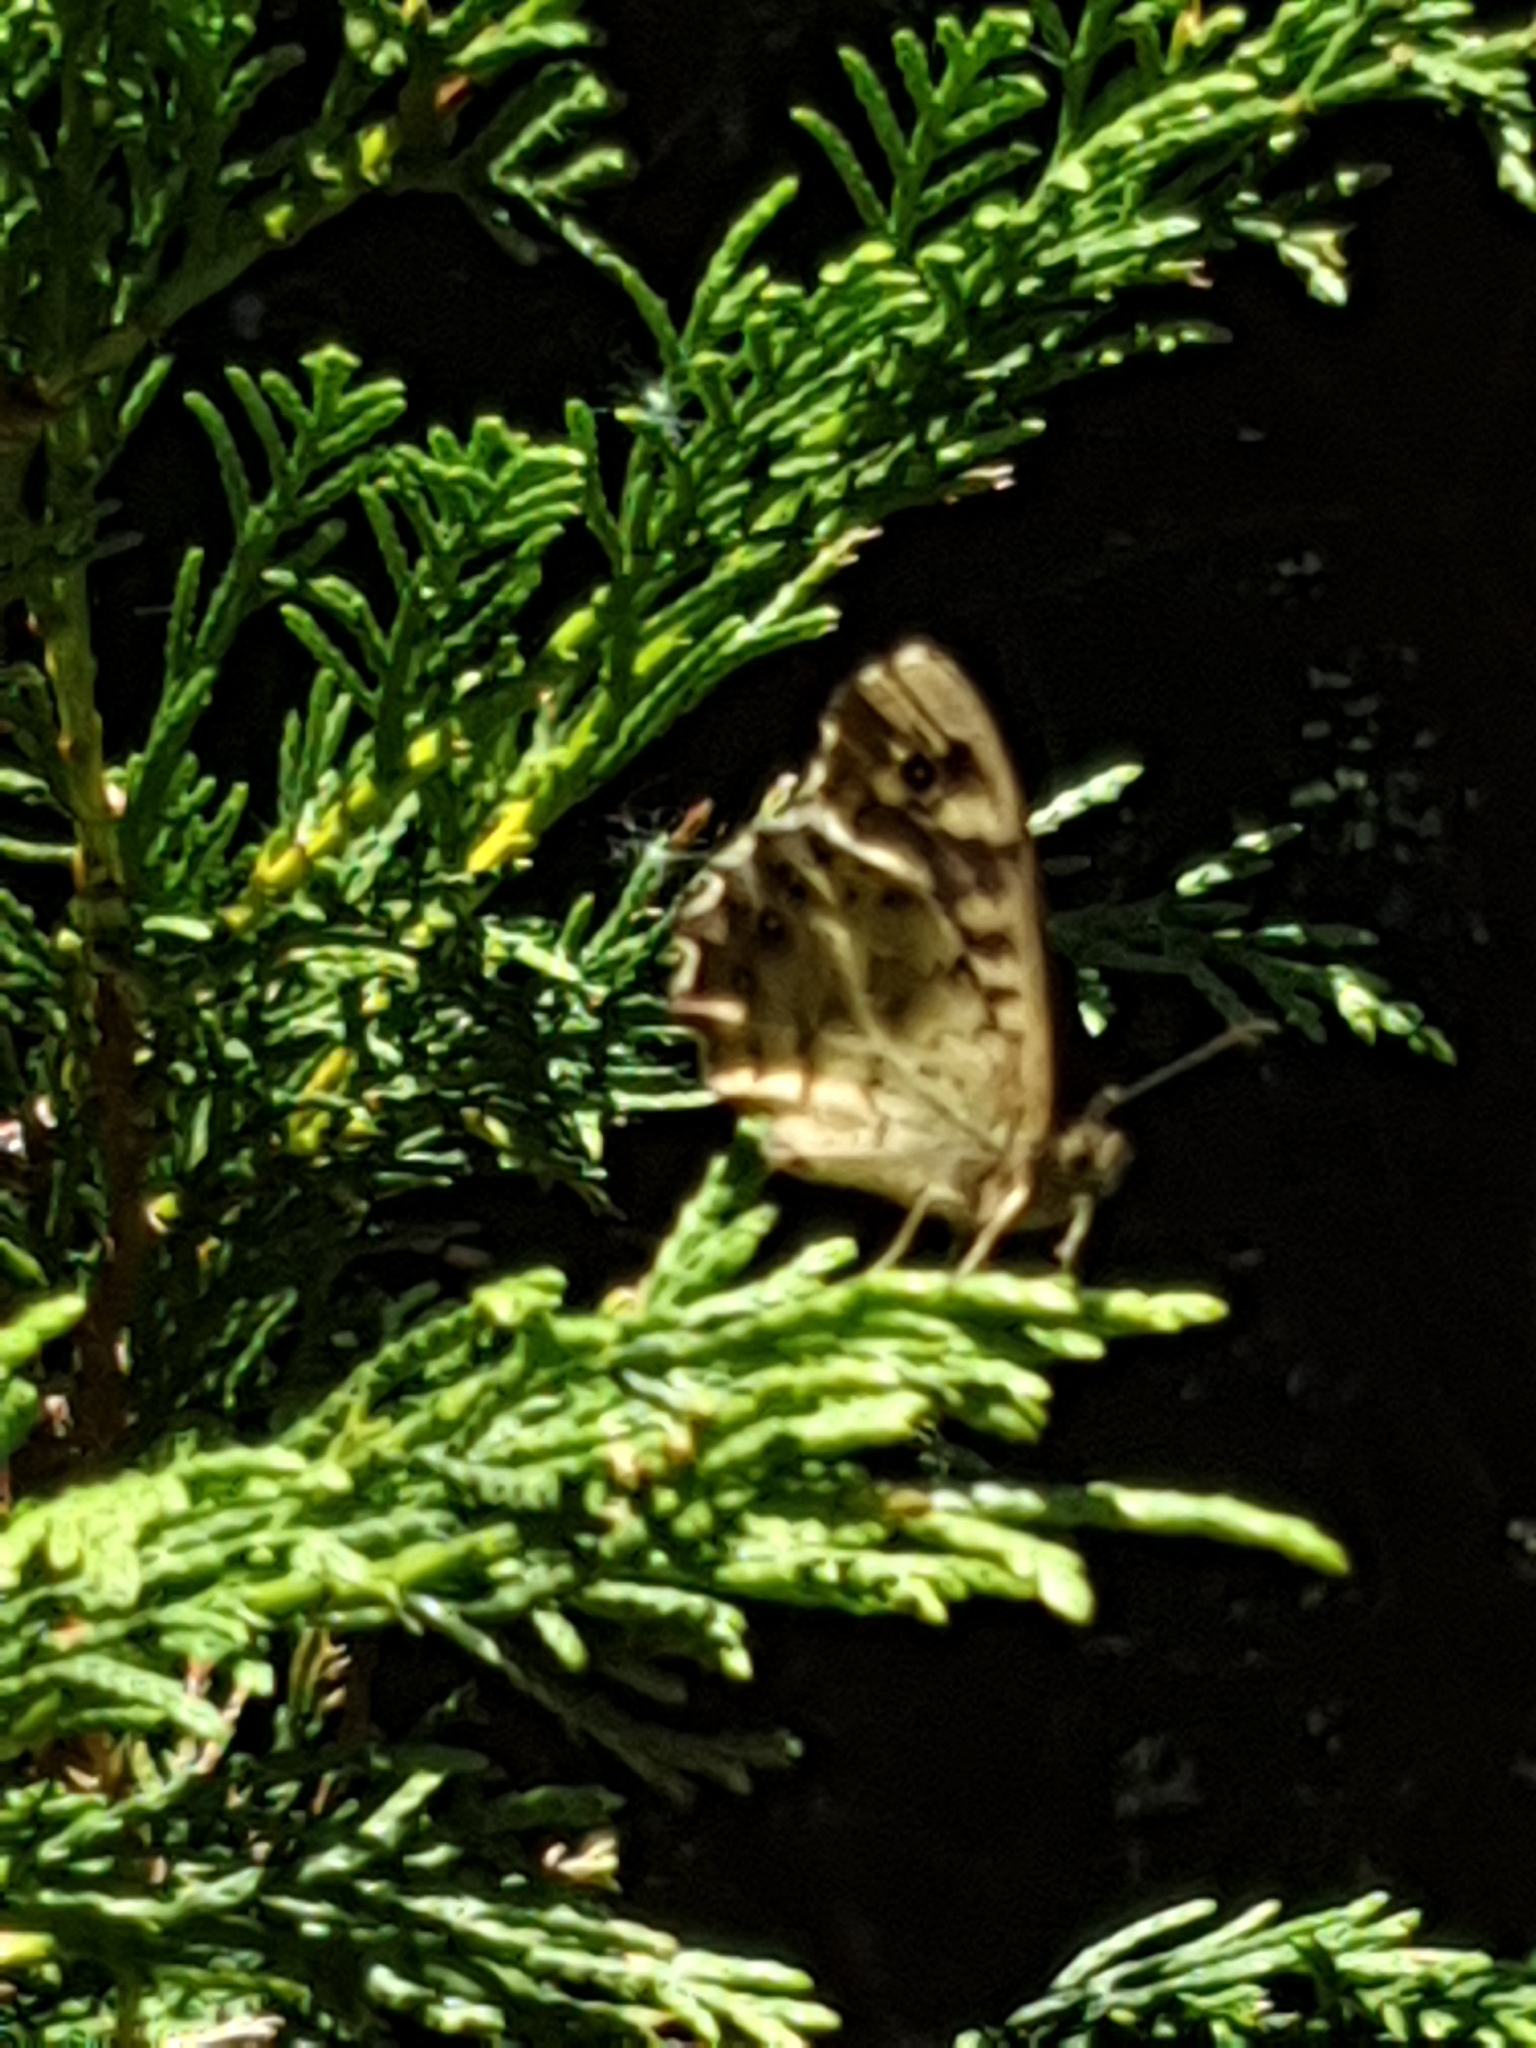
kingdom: Animalia
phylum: Arthropoda
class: Insecta
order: Lepidoptera
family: Nymphalidae
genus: Pararge
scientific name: Pararge aegeria
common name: Speckled wood
